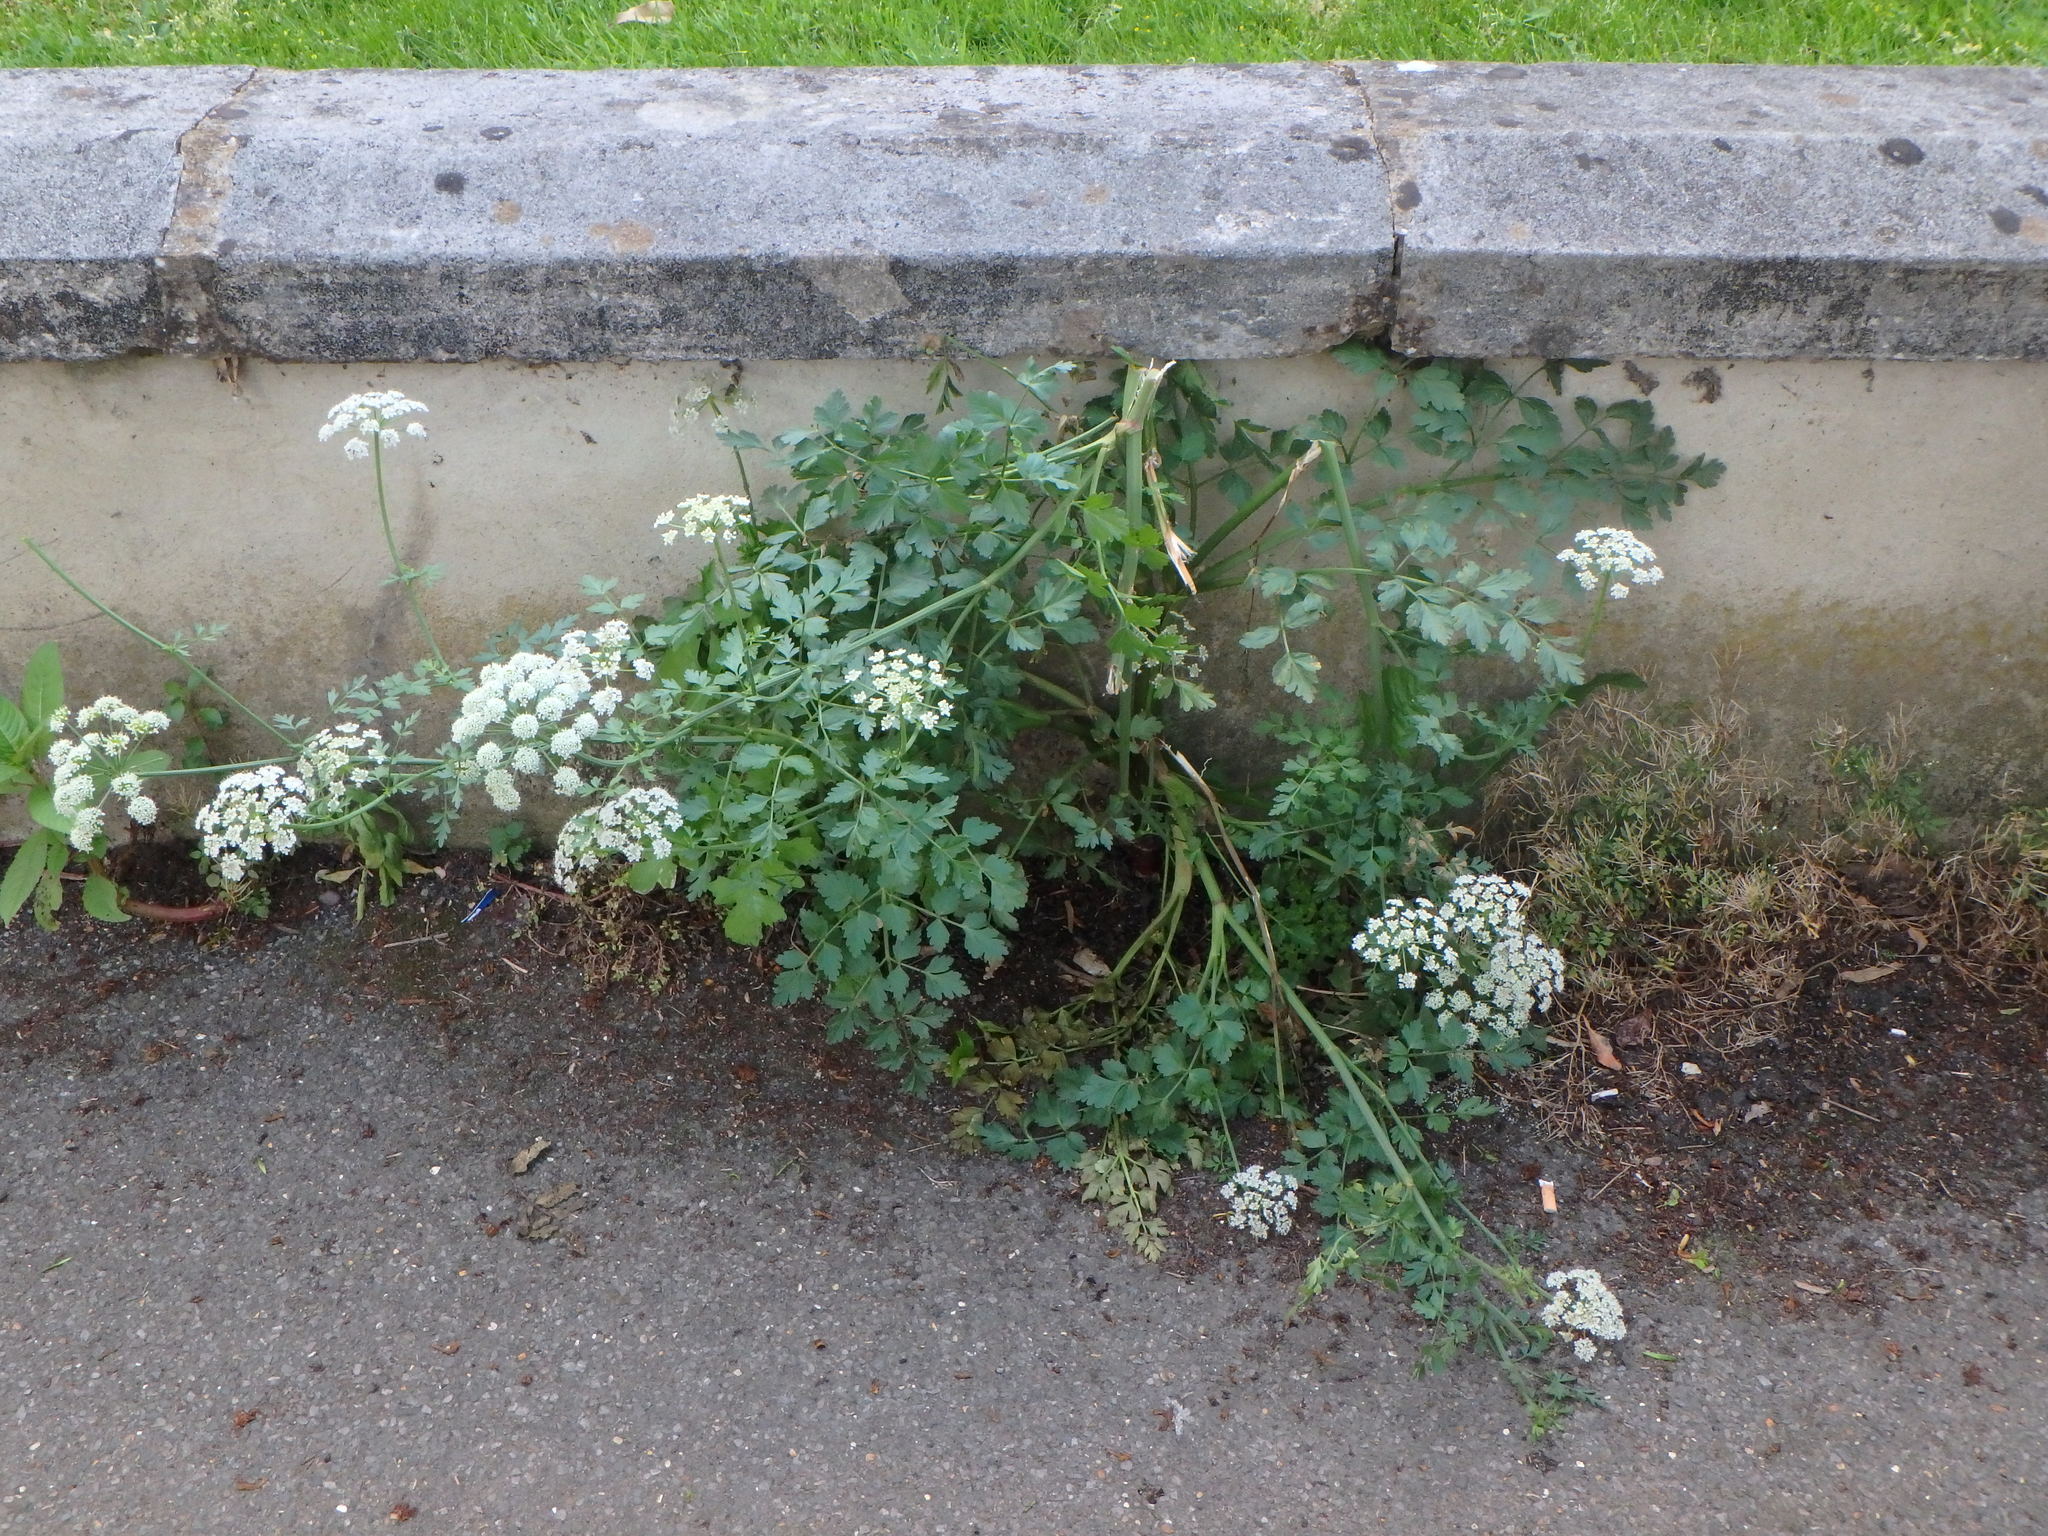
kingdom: Plantae
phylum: Tracheophyta
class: Magnoliopsida
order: Apiales
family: Apiaceae
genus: Oenanthe
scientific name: Oenanthe crocata
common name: Hemlock water-dropwort
